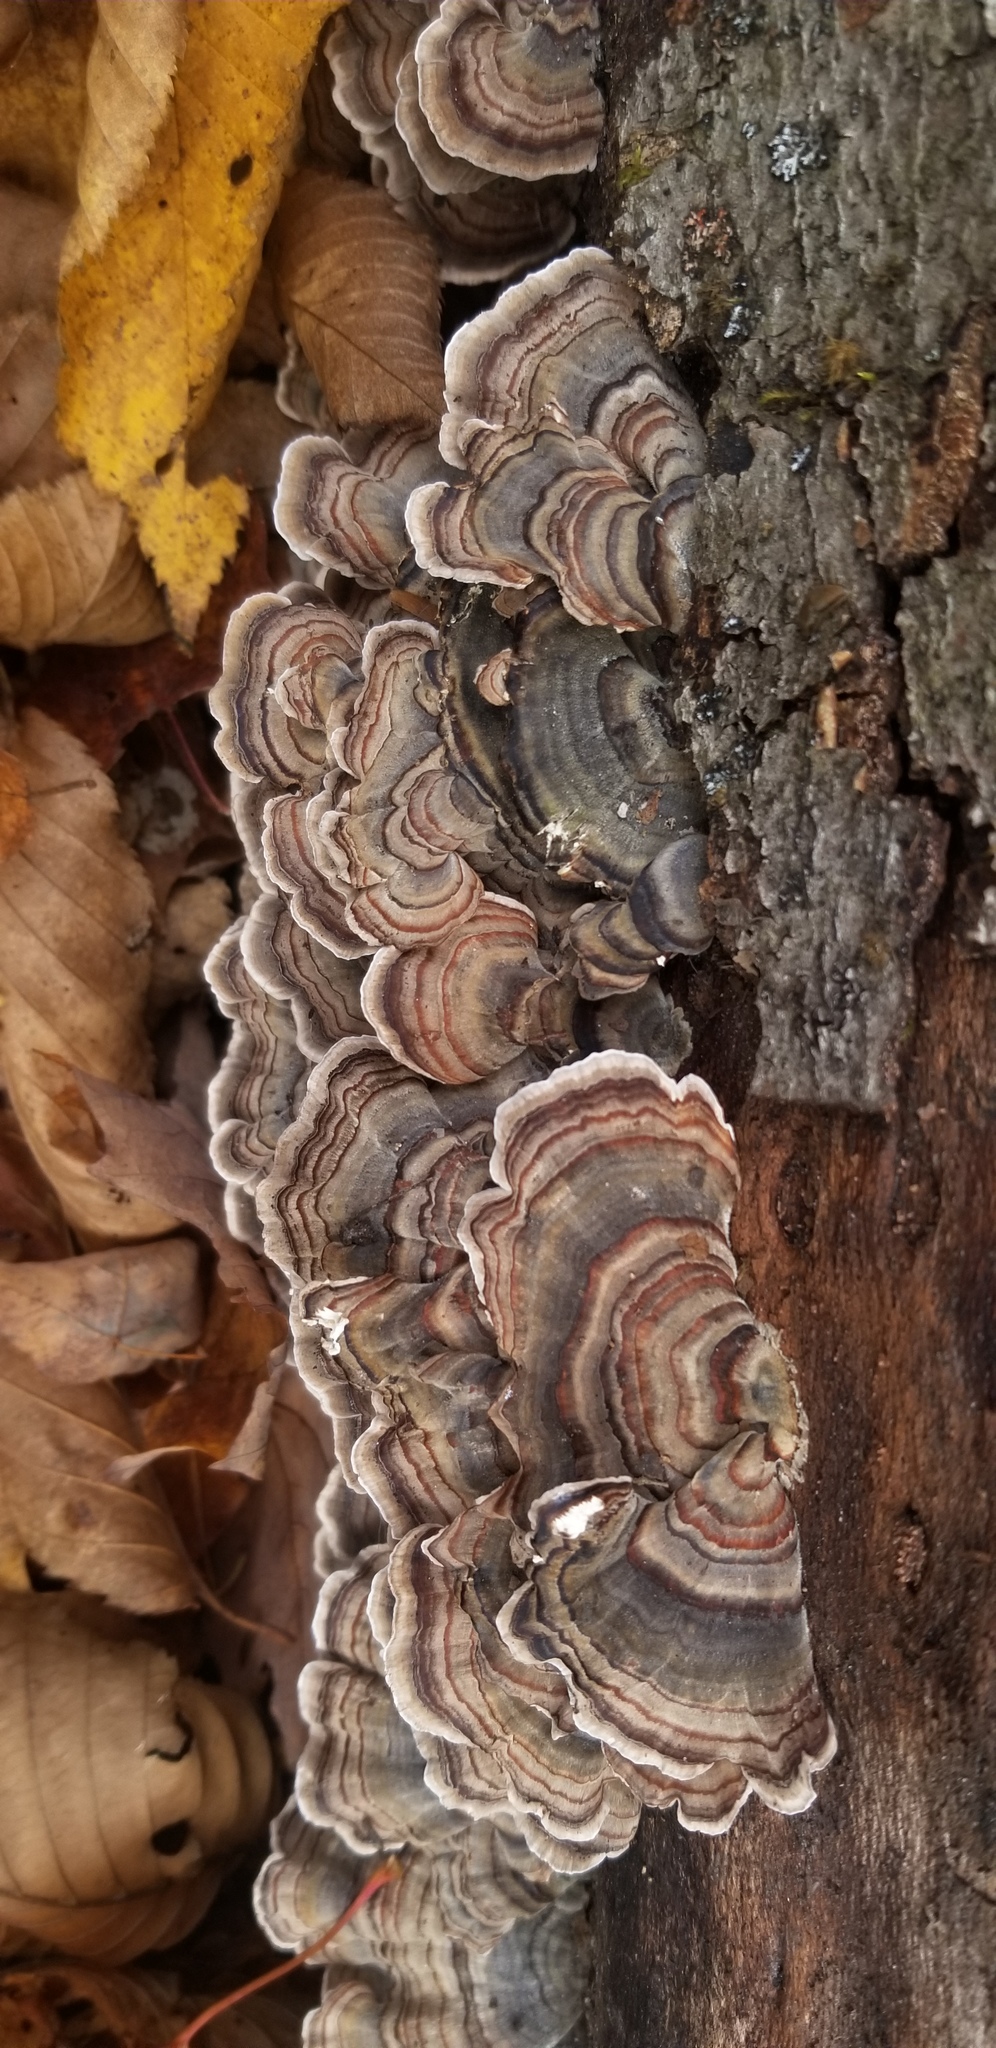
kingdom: Fungi
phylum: Basidiomycota
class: Agaricomycetes
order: Polyporales
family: Polyporaceae
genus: Trametes
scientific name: Trametes versicolor
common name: Turkeytail
